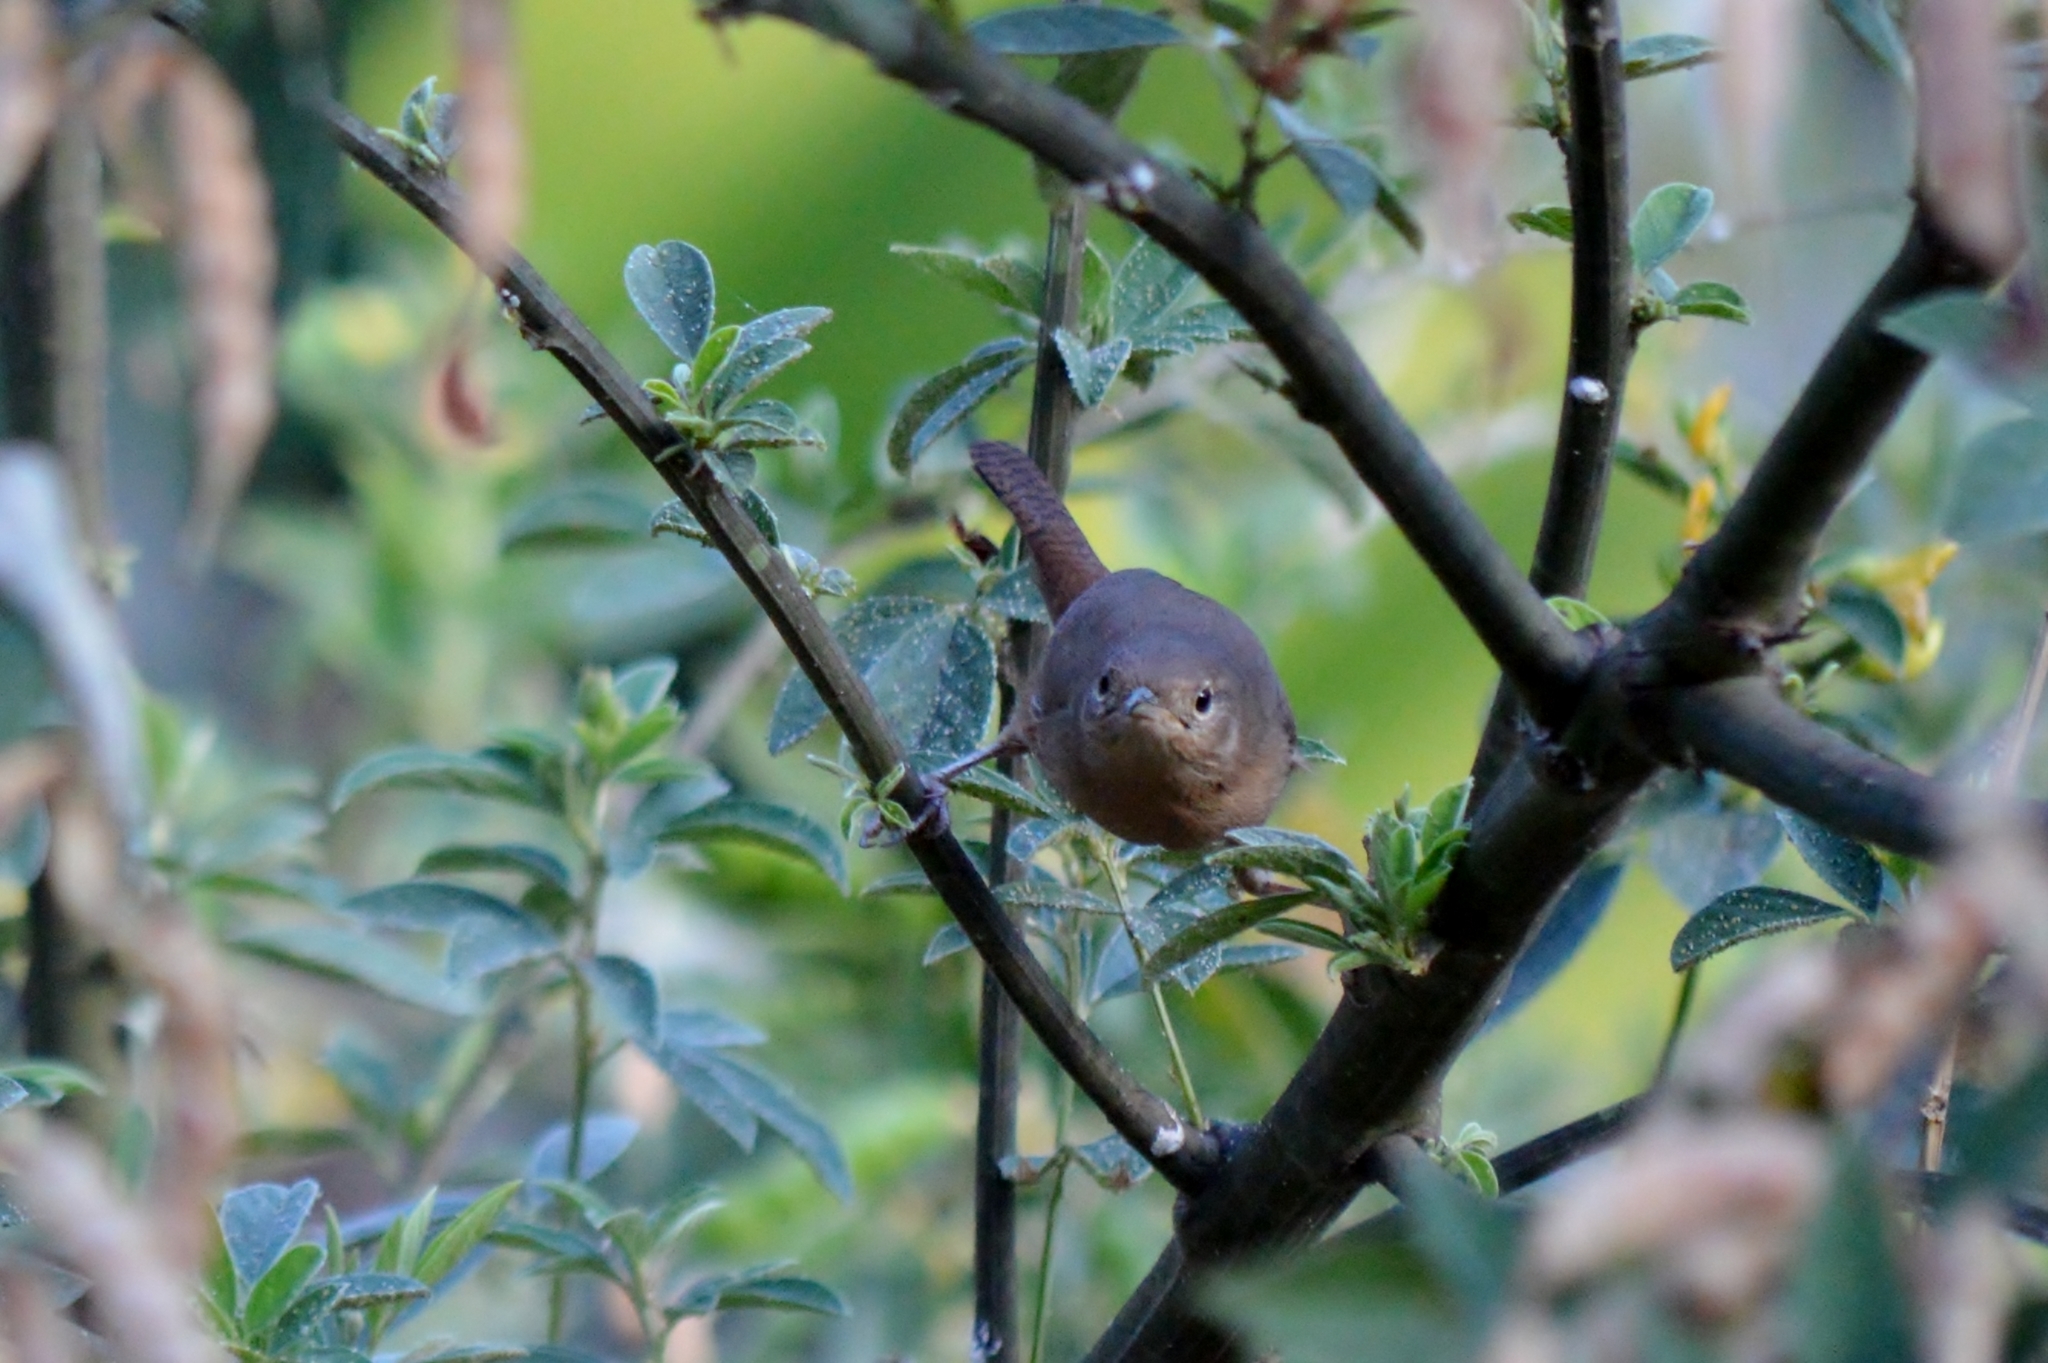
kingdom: Animalia
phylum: Chordata
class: Aves
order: Passeriformes
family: Troglodytidae
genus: Troglodytes
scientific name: Troglodytes aedon
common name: House wren
